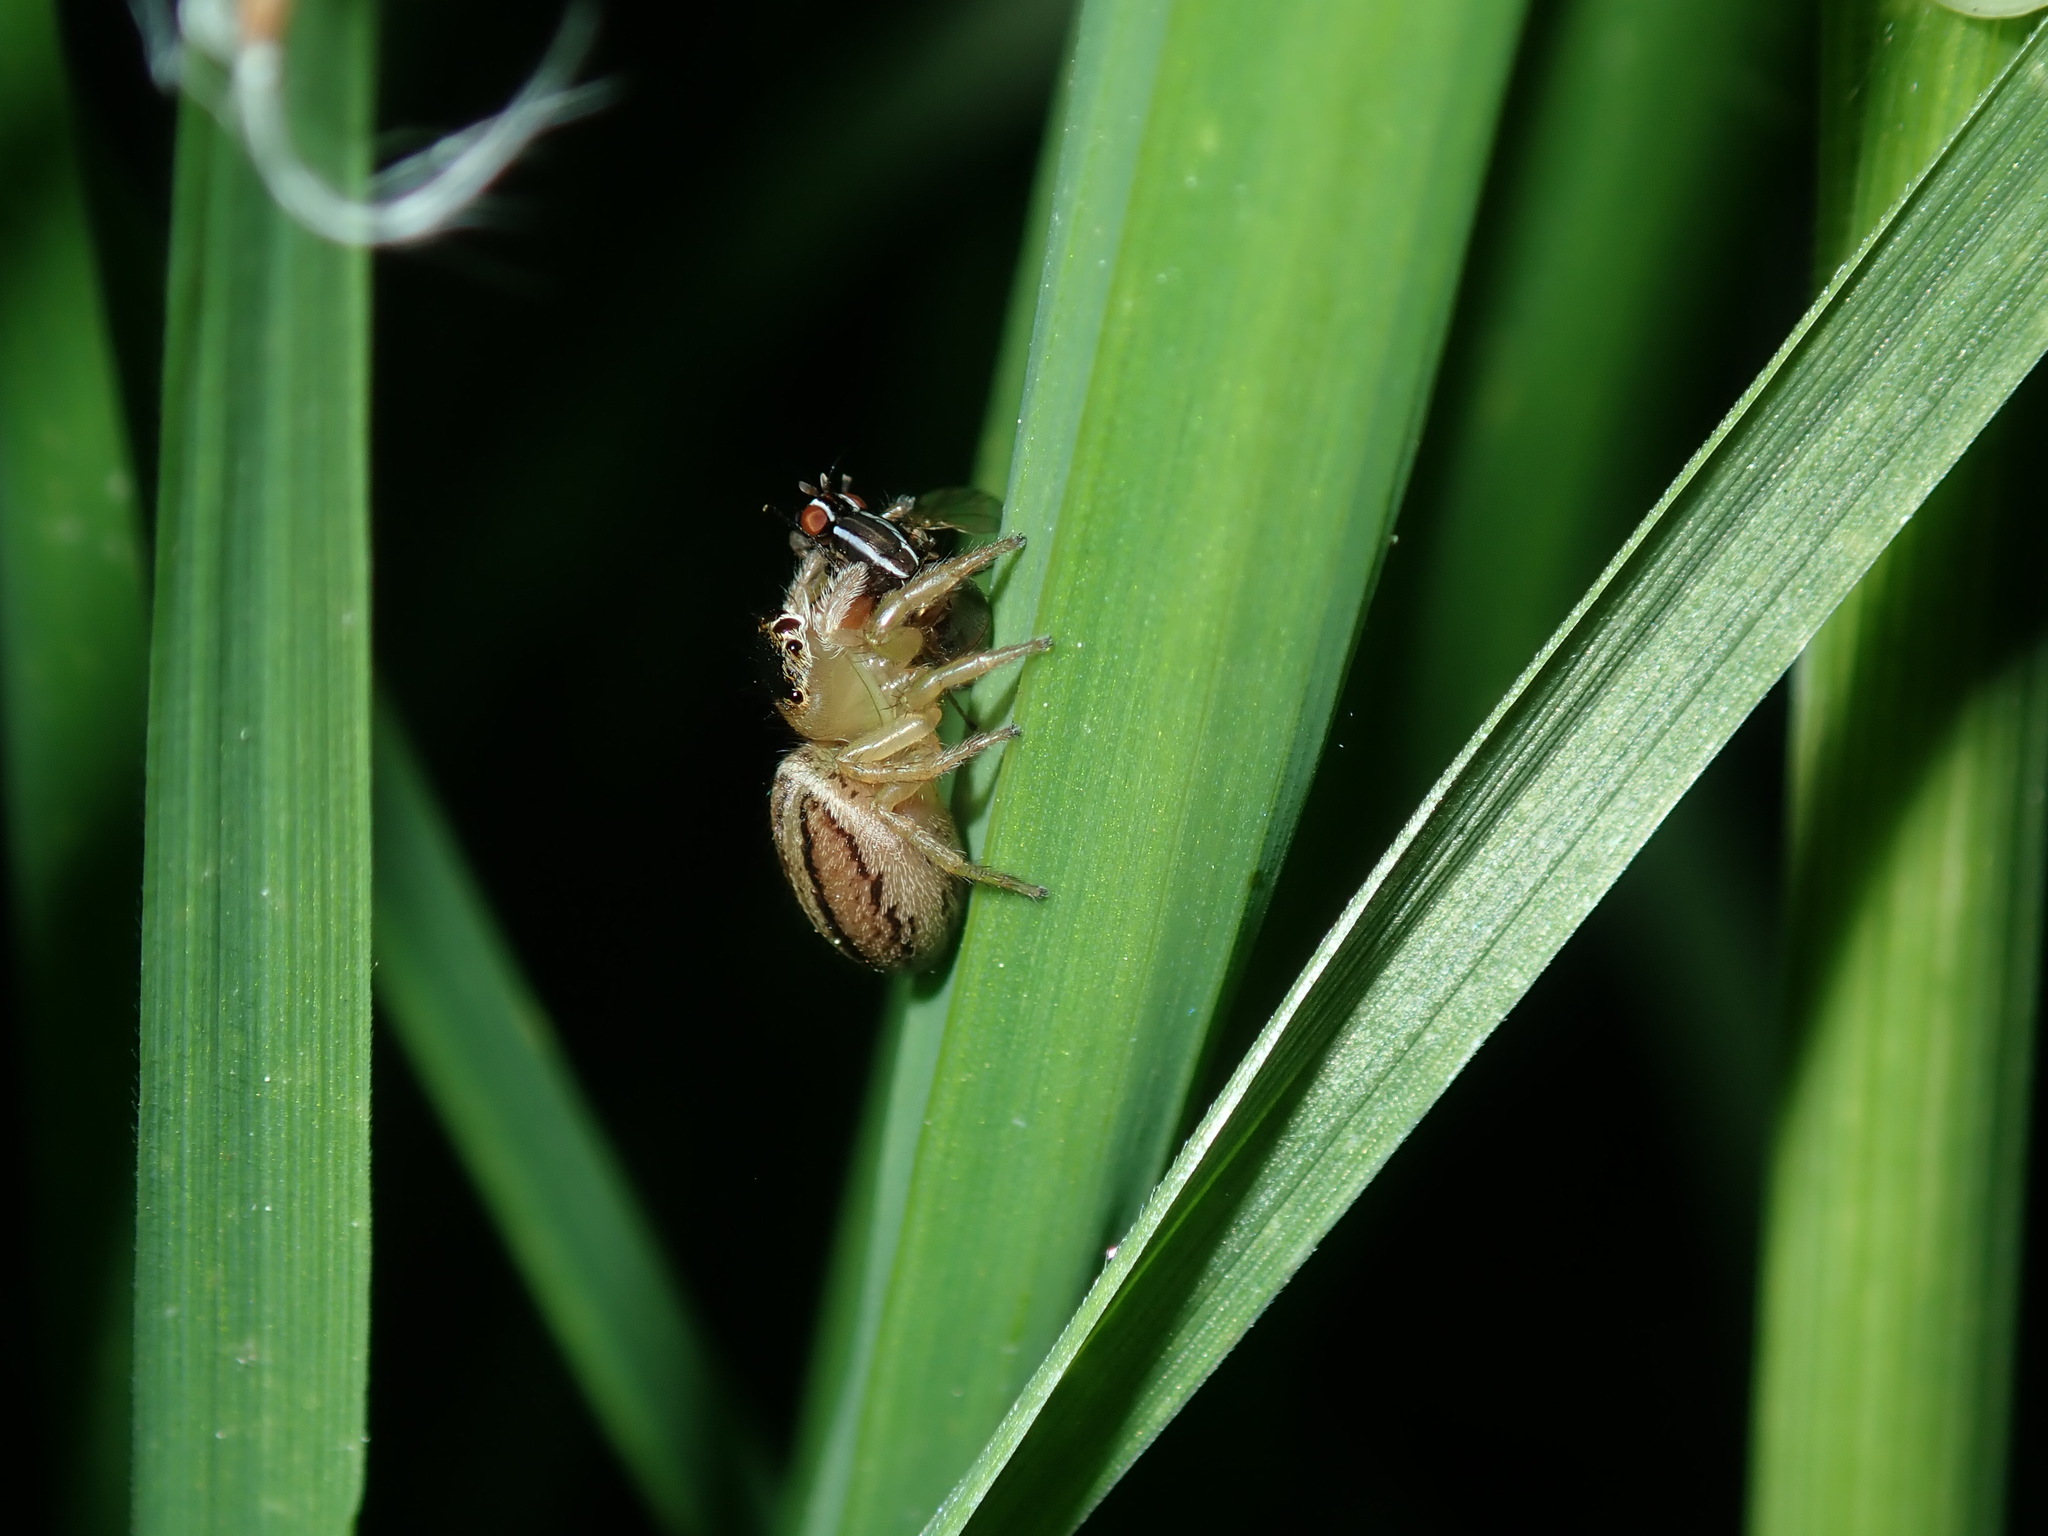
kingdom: Animalia
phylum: Arthropoda
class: Insecta
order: Diptera
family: Lauxaniidae
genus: Poecilohetaerus
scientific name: Poecilohetaerus aquilus
